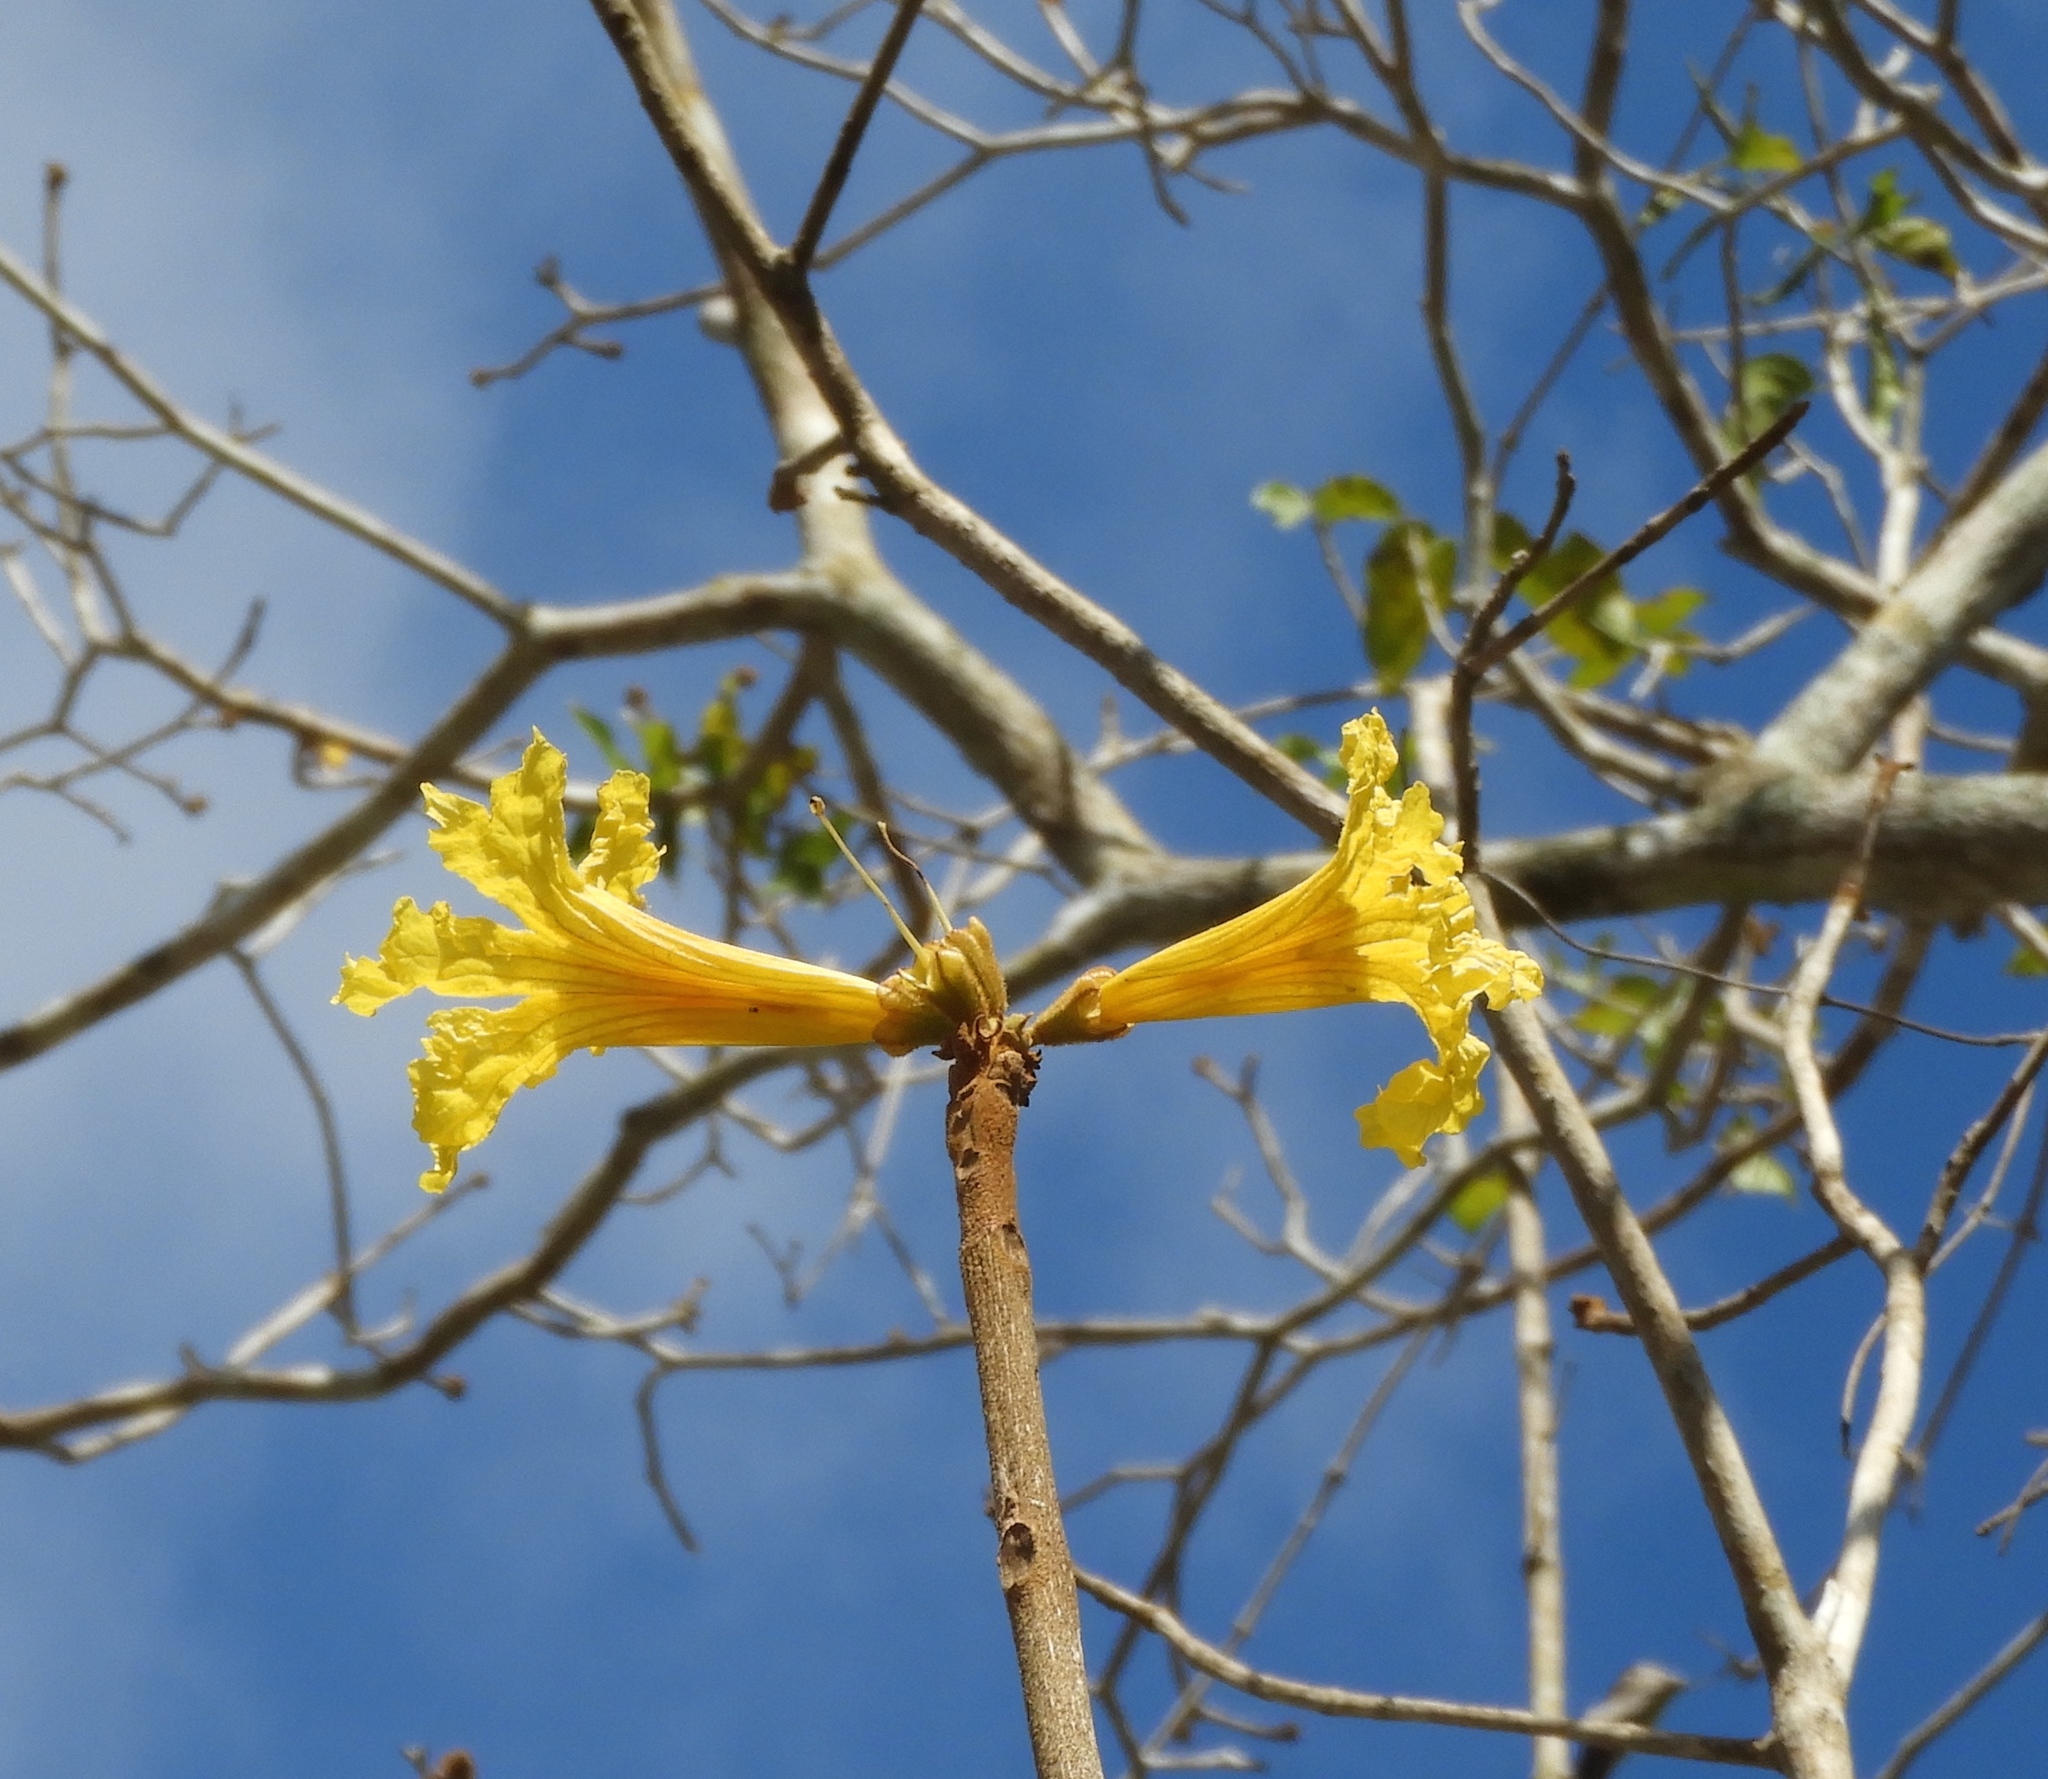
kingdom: Plantae
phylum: Tracheophyta
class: Magnoliopsida
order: Lamiales
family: Bignoniaceae
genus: Handroanthus
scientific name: Handroanthus chrysanthus
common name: Trumpet trees
